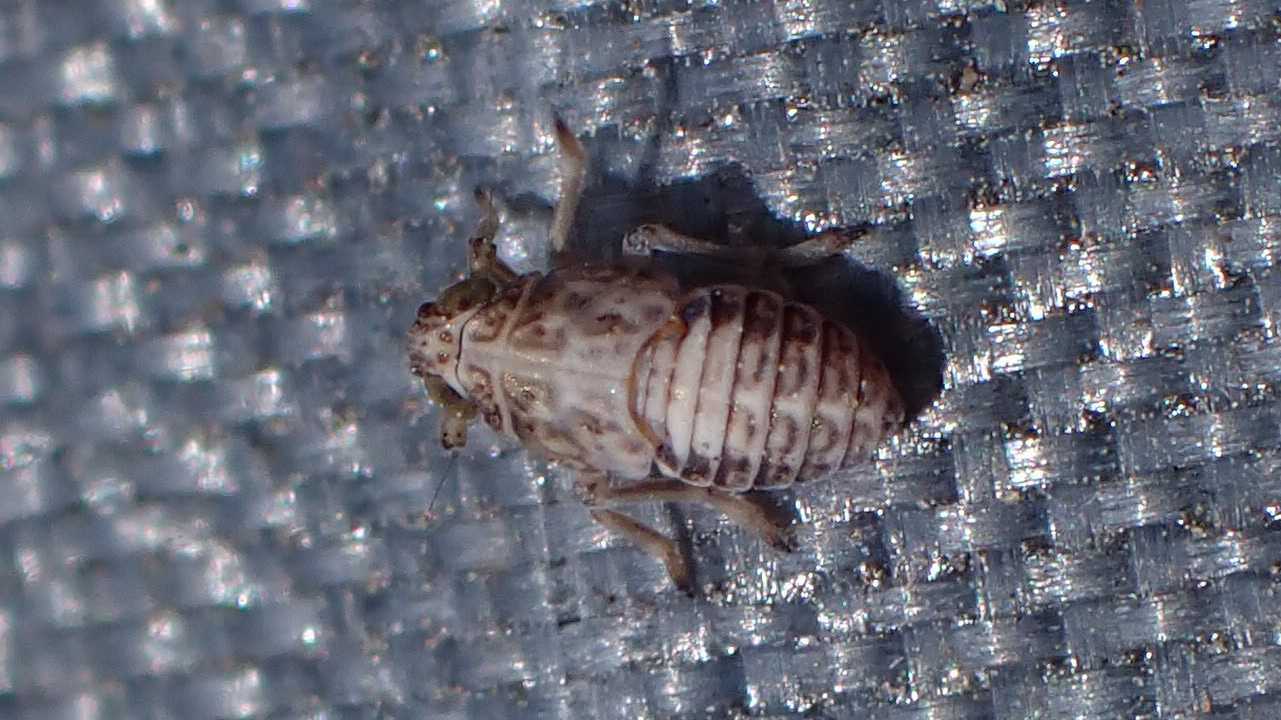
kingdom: Animalia
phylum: Arthropoda
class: Insecta
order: Hemiptera
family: Delphacidae
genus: Javesella
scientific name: Javesella stali
